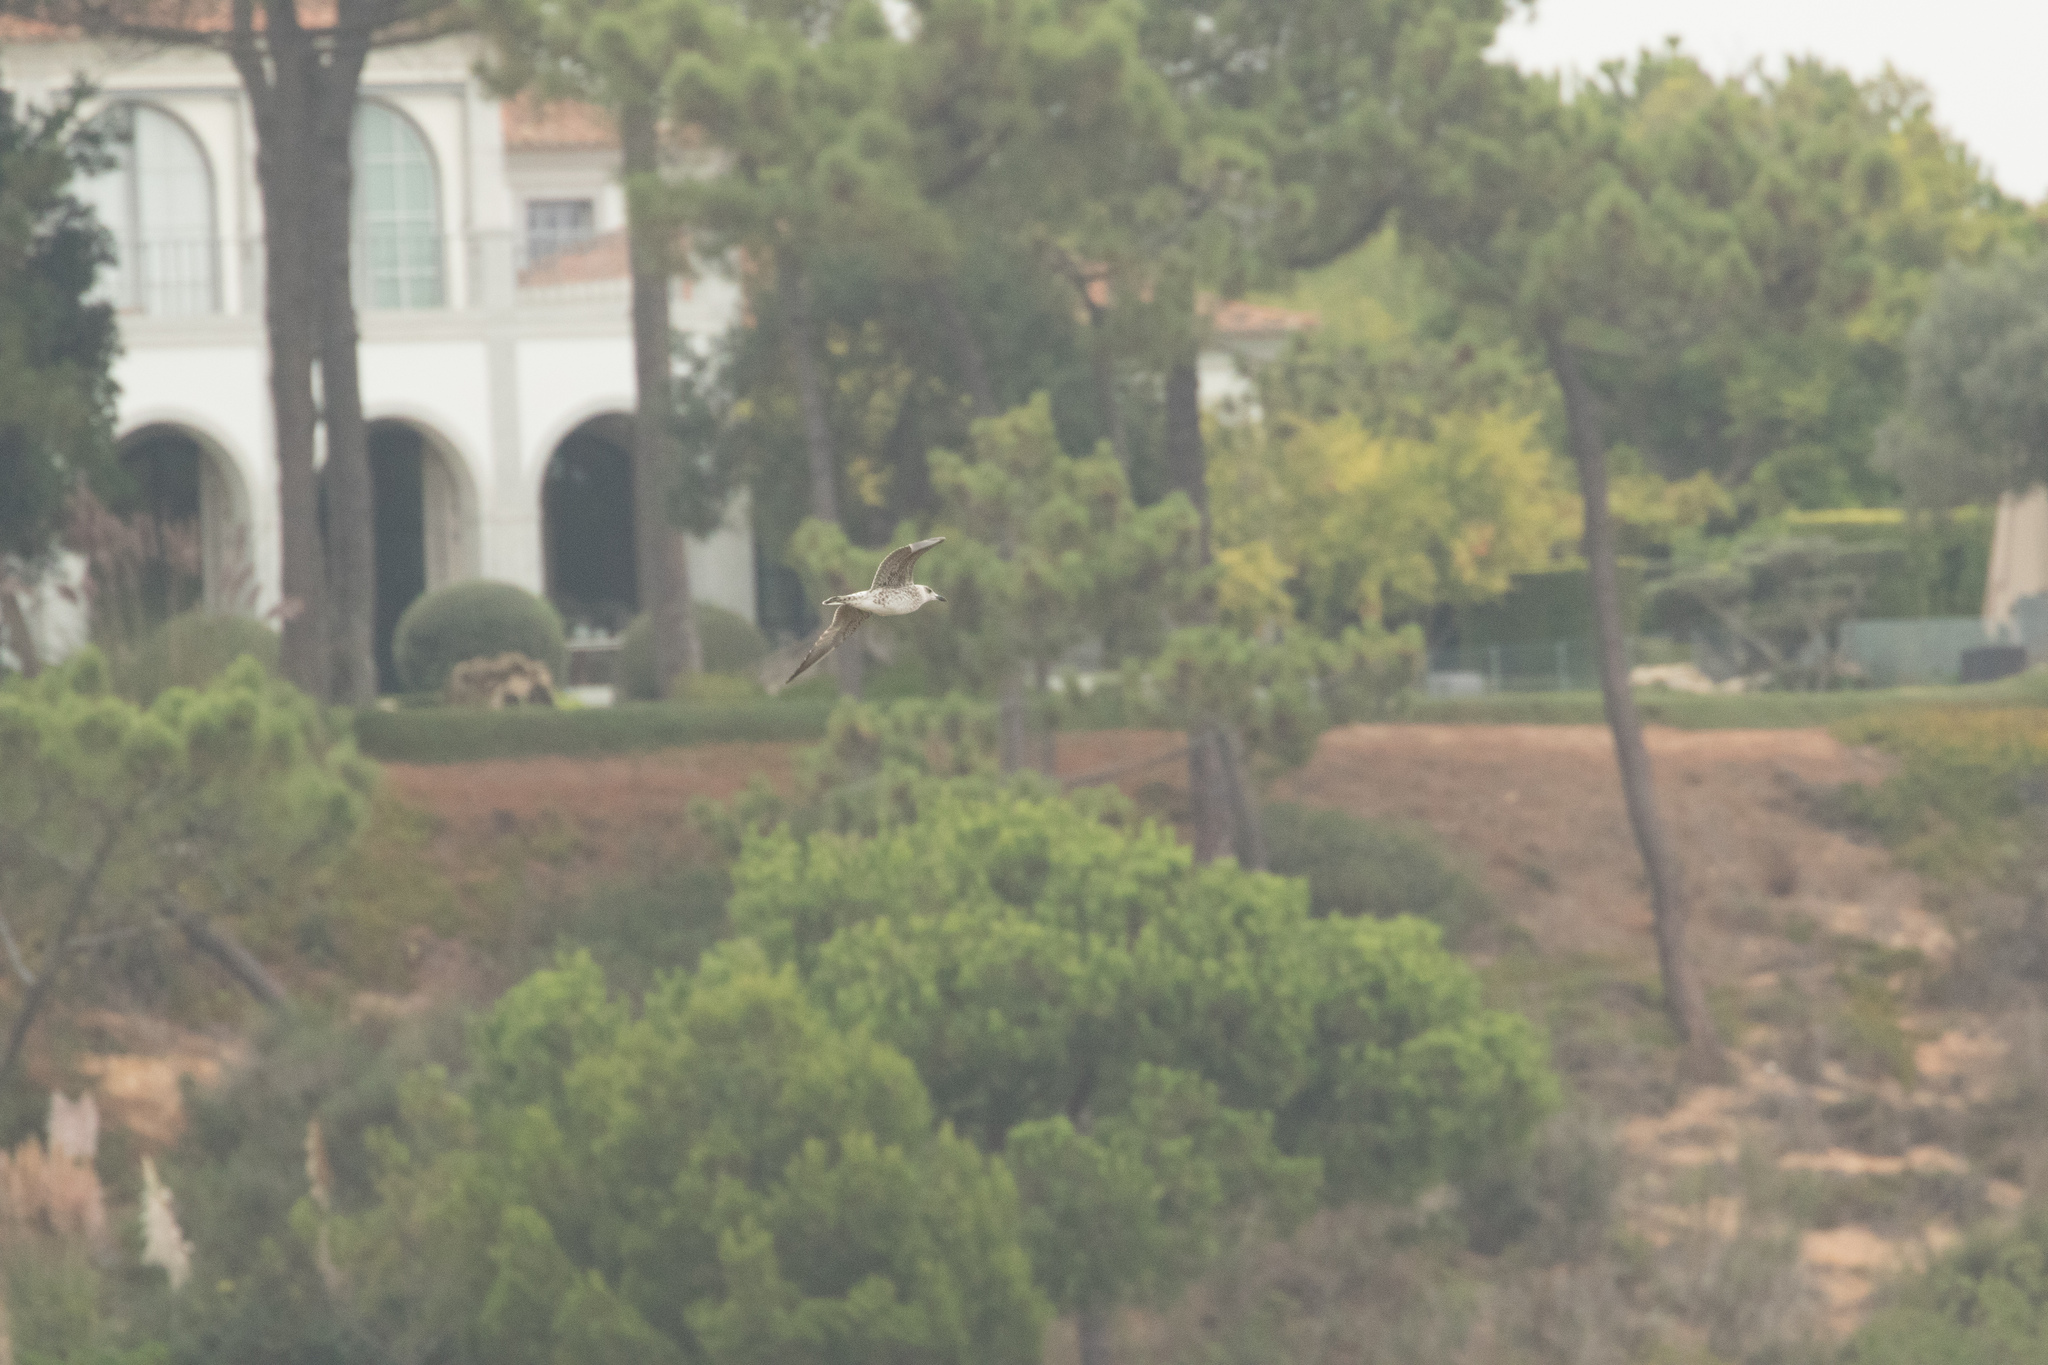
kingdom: Animalia
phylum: Chordata
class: Aves
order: Charadriiformes
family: Laridae
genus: Larus
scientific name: Larus
